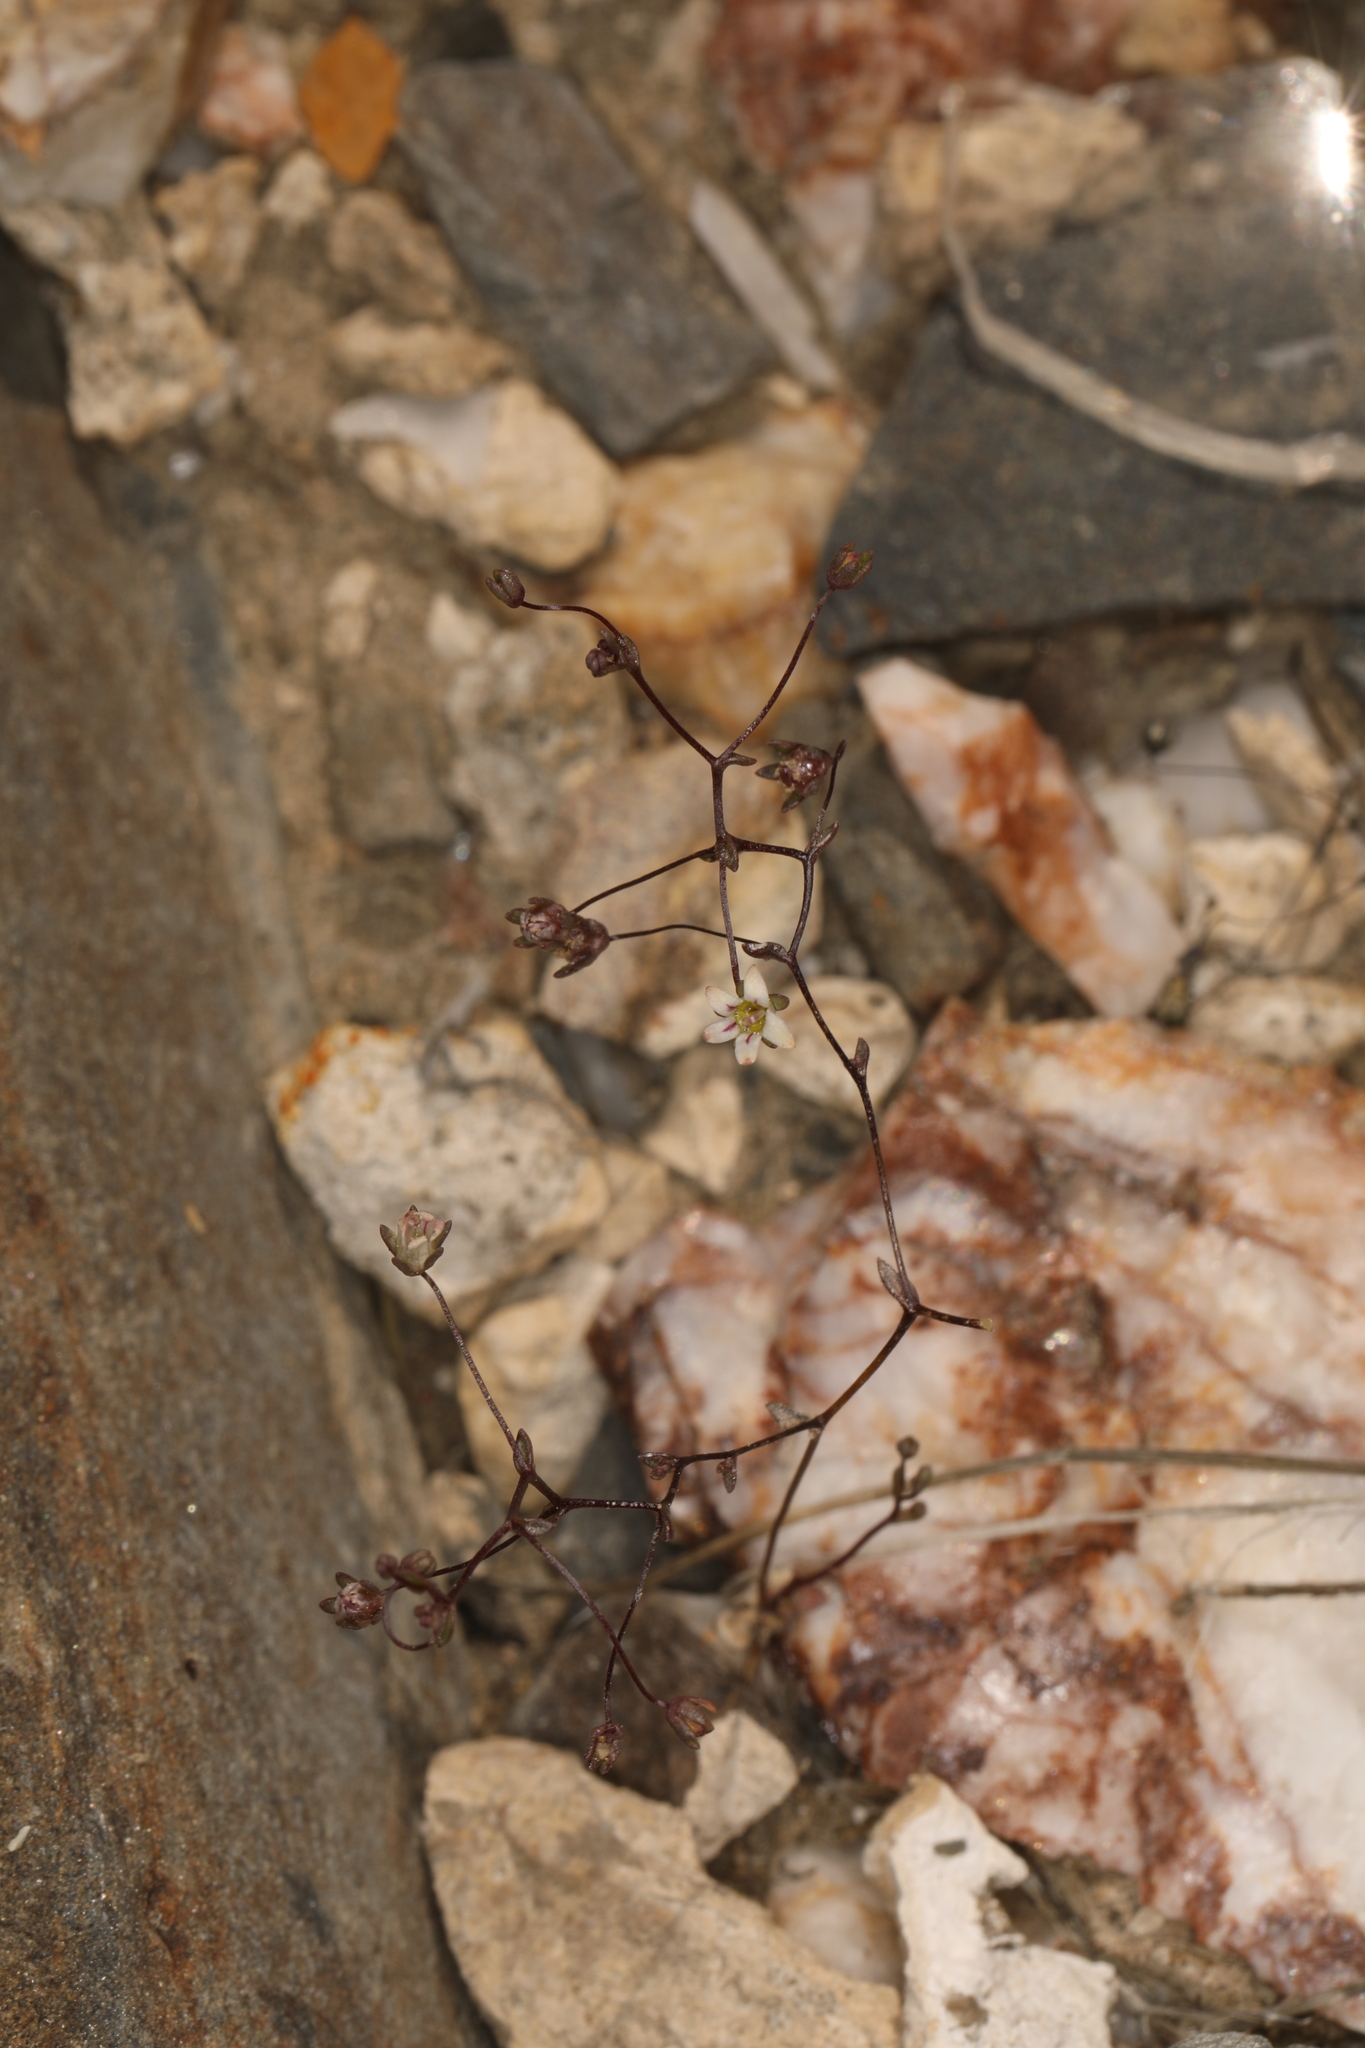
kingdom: Plantae
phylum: Tracheophyta
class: Magnoliopsida
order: Asterales
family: Campanulaceae
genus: Nemacladus
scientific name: Nemacladus inyoensis
